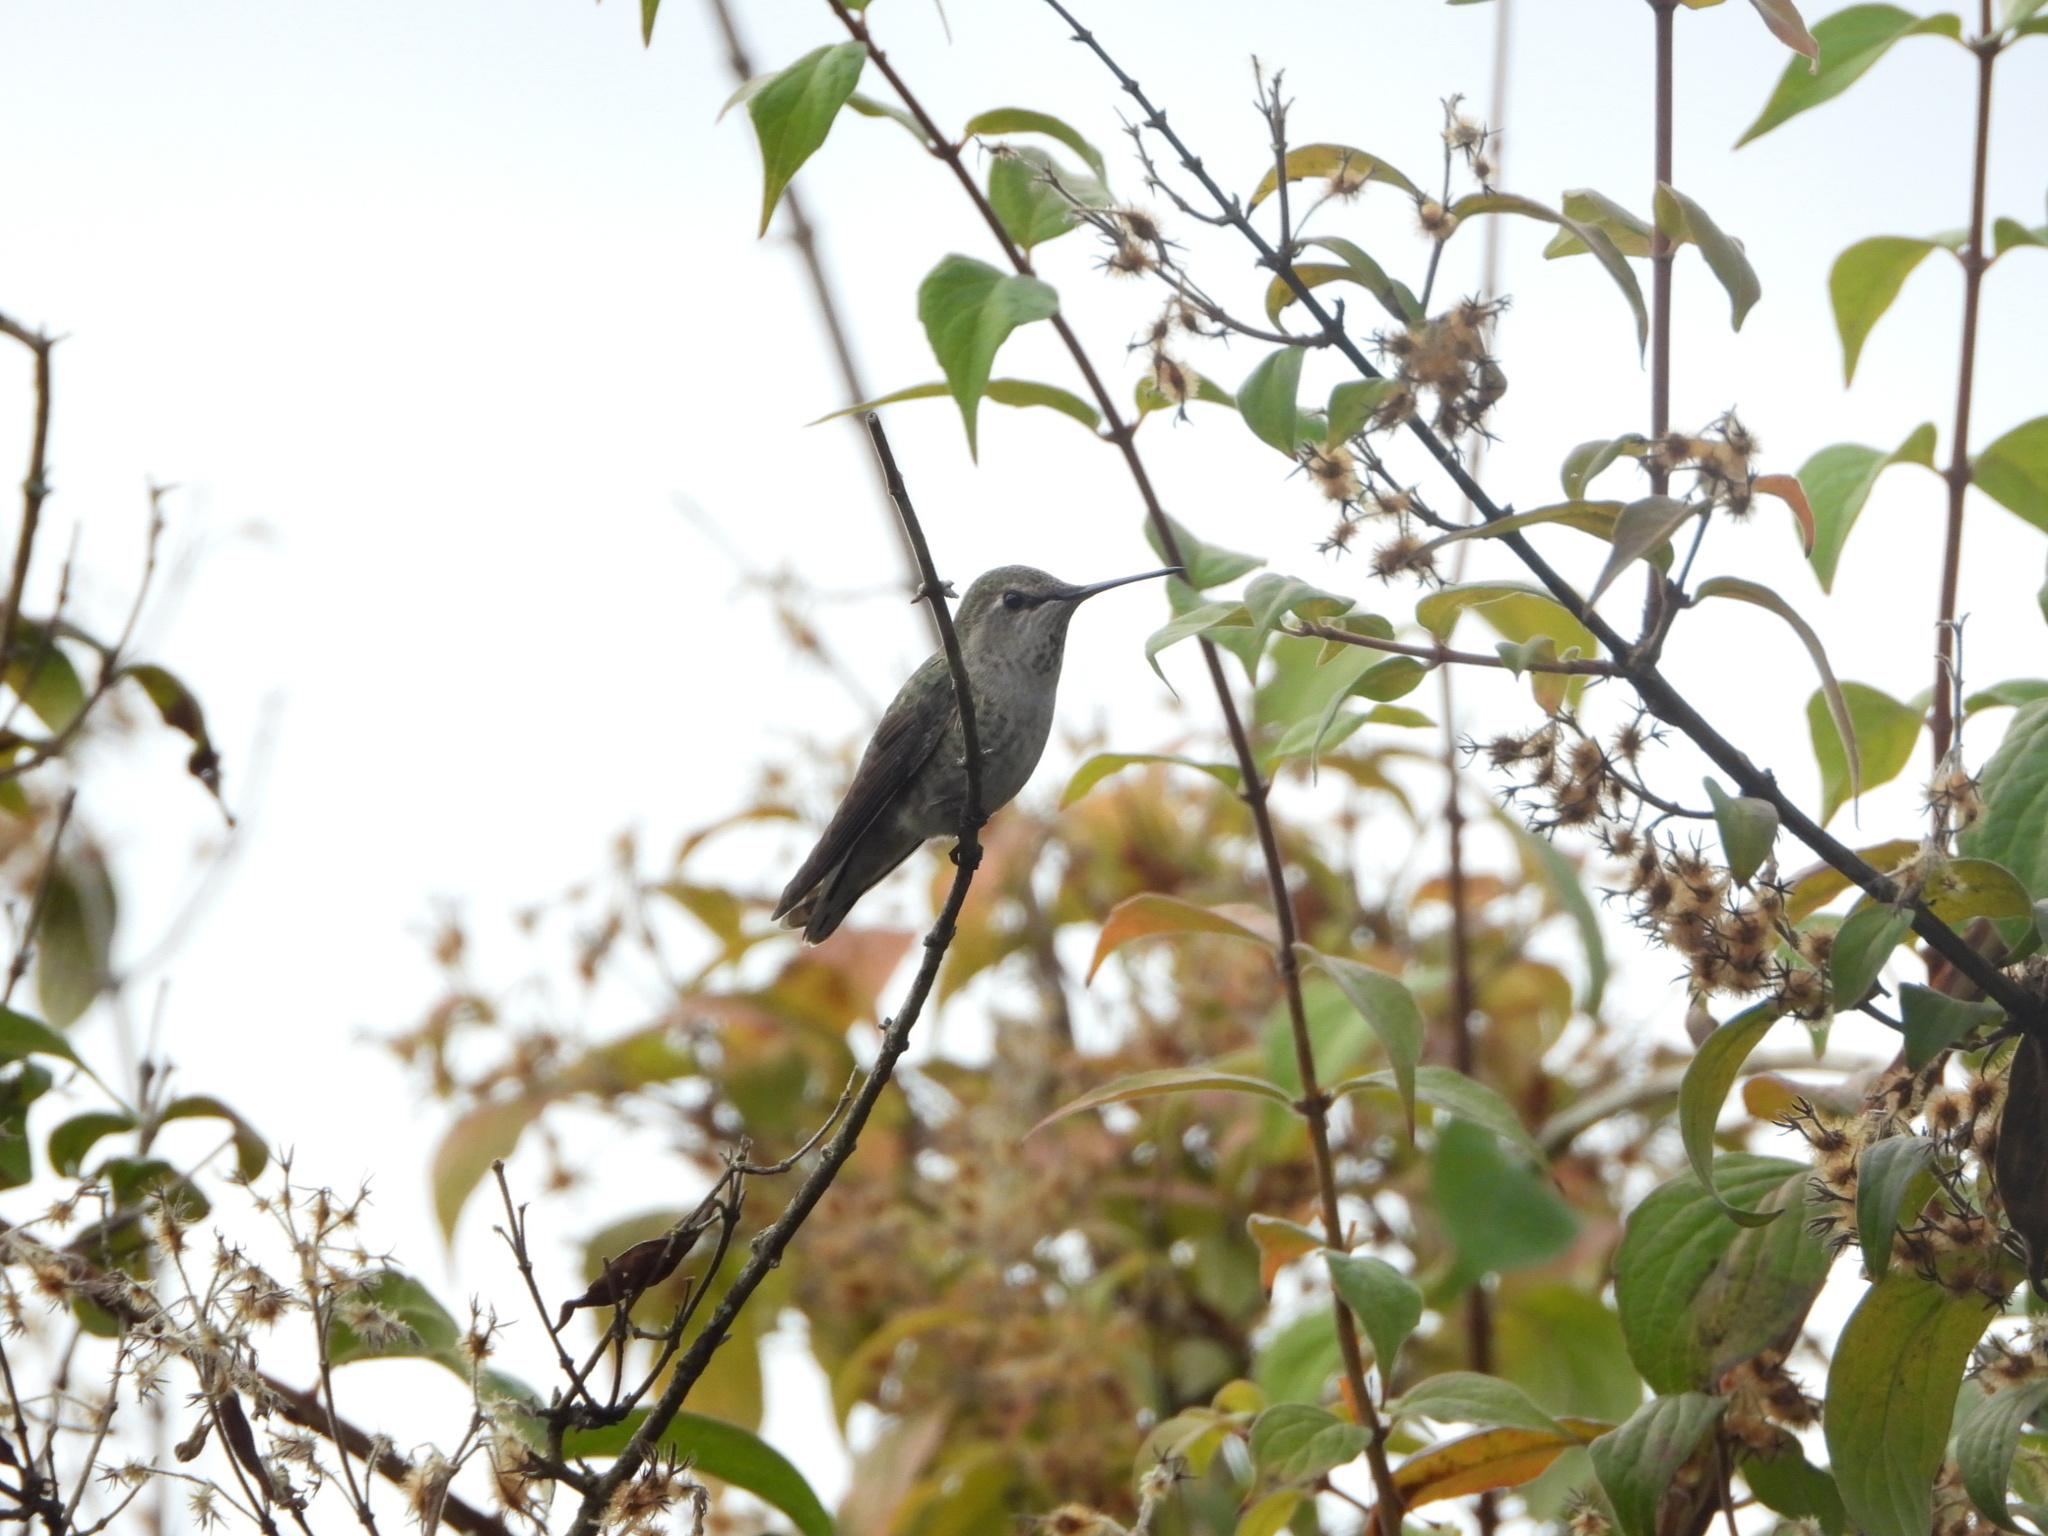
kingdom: Animalia
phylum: Chordata
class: Aves
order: Apodiformes
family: Trochilidae
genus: Calypte
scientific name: Calypte anna
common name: Anna's hummingbird
